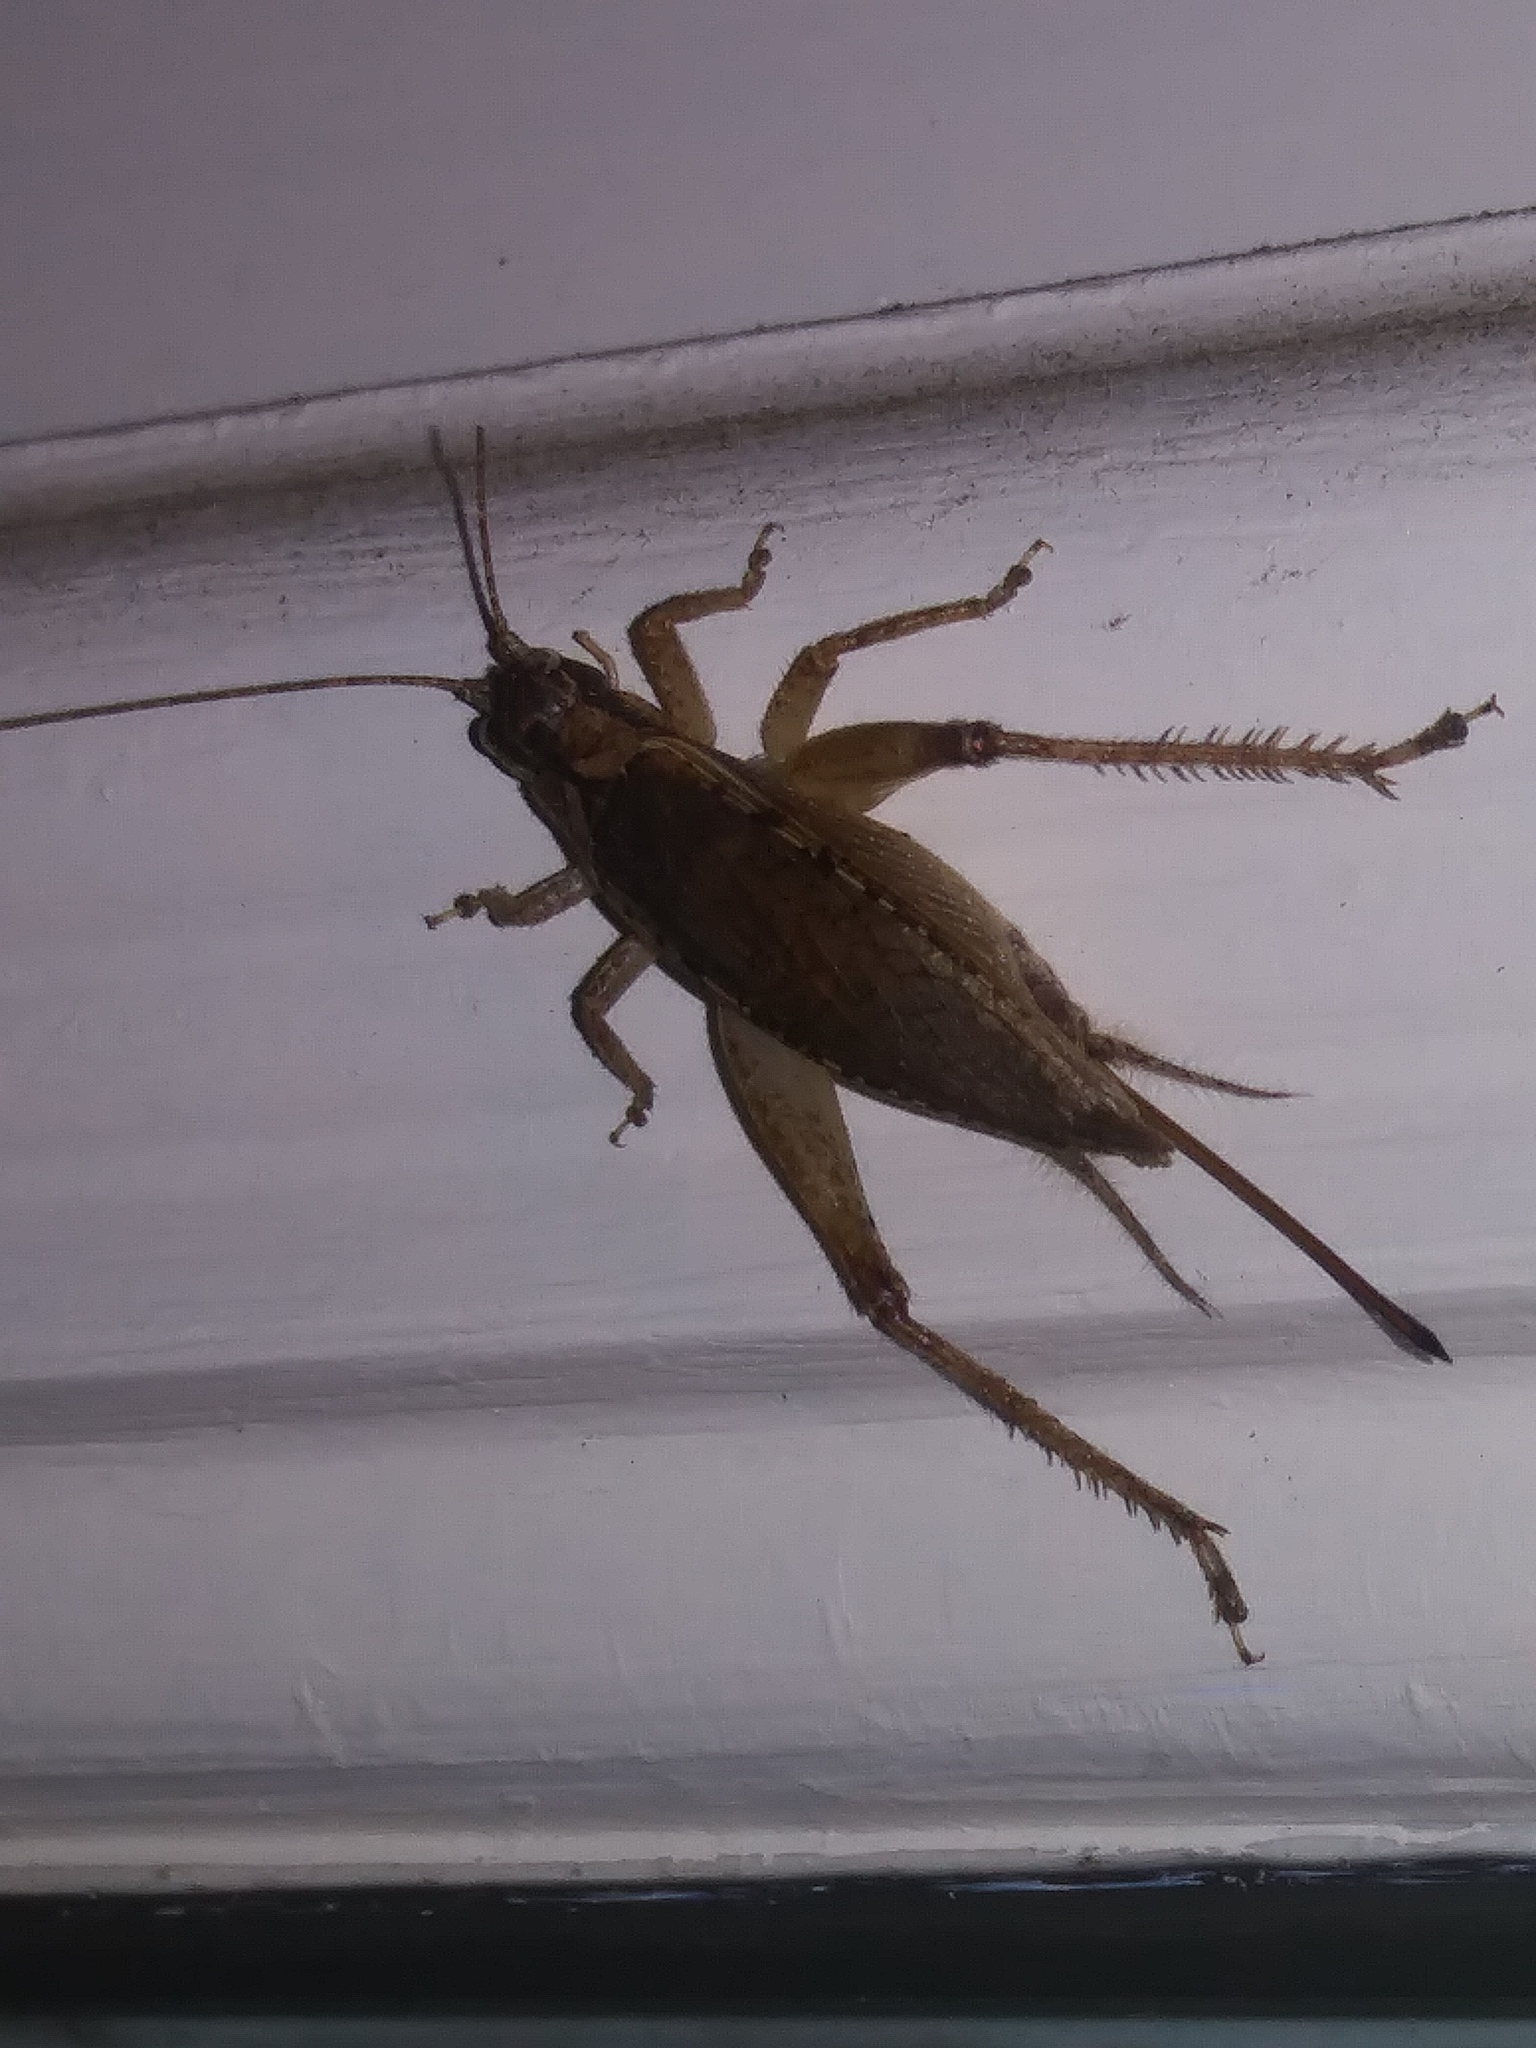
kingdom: Animalia
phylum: Arthropoda
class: Insecta
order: Orthoptera
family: Gryllidae
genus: Hapithus
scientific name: Hapithus saltator
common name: Jumping bush cricket
